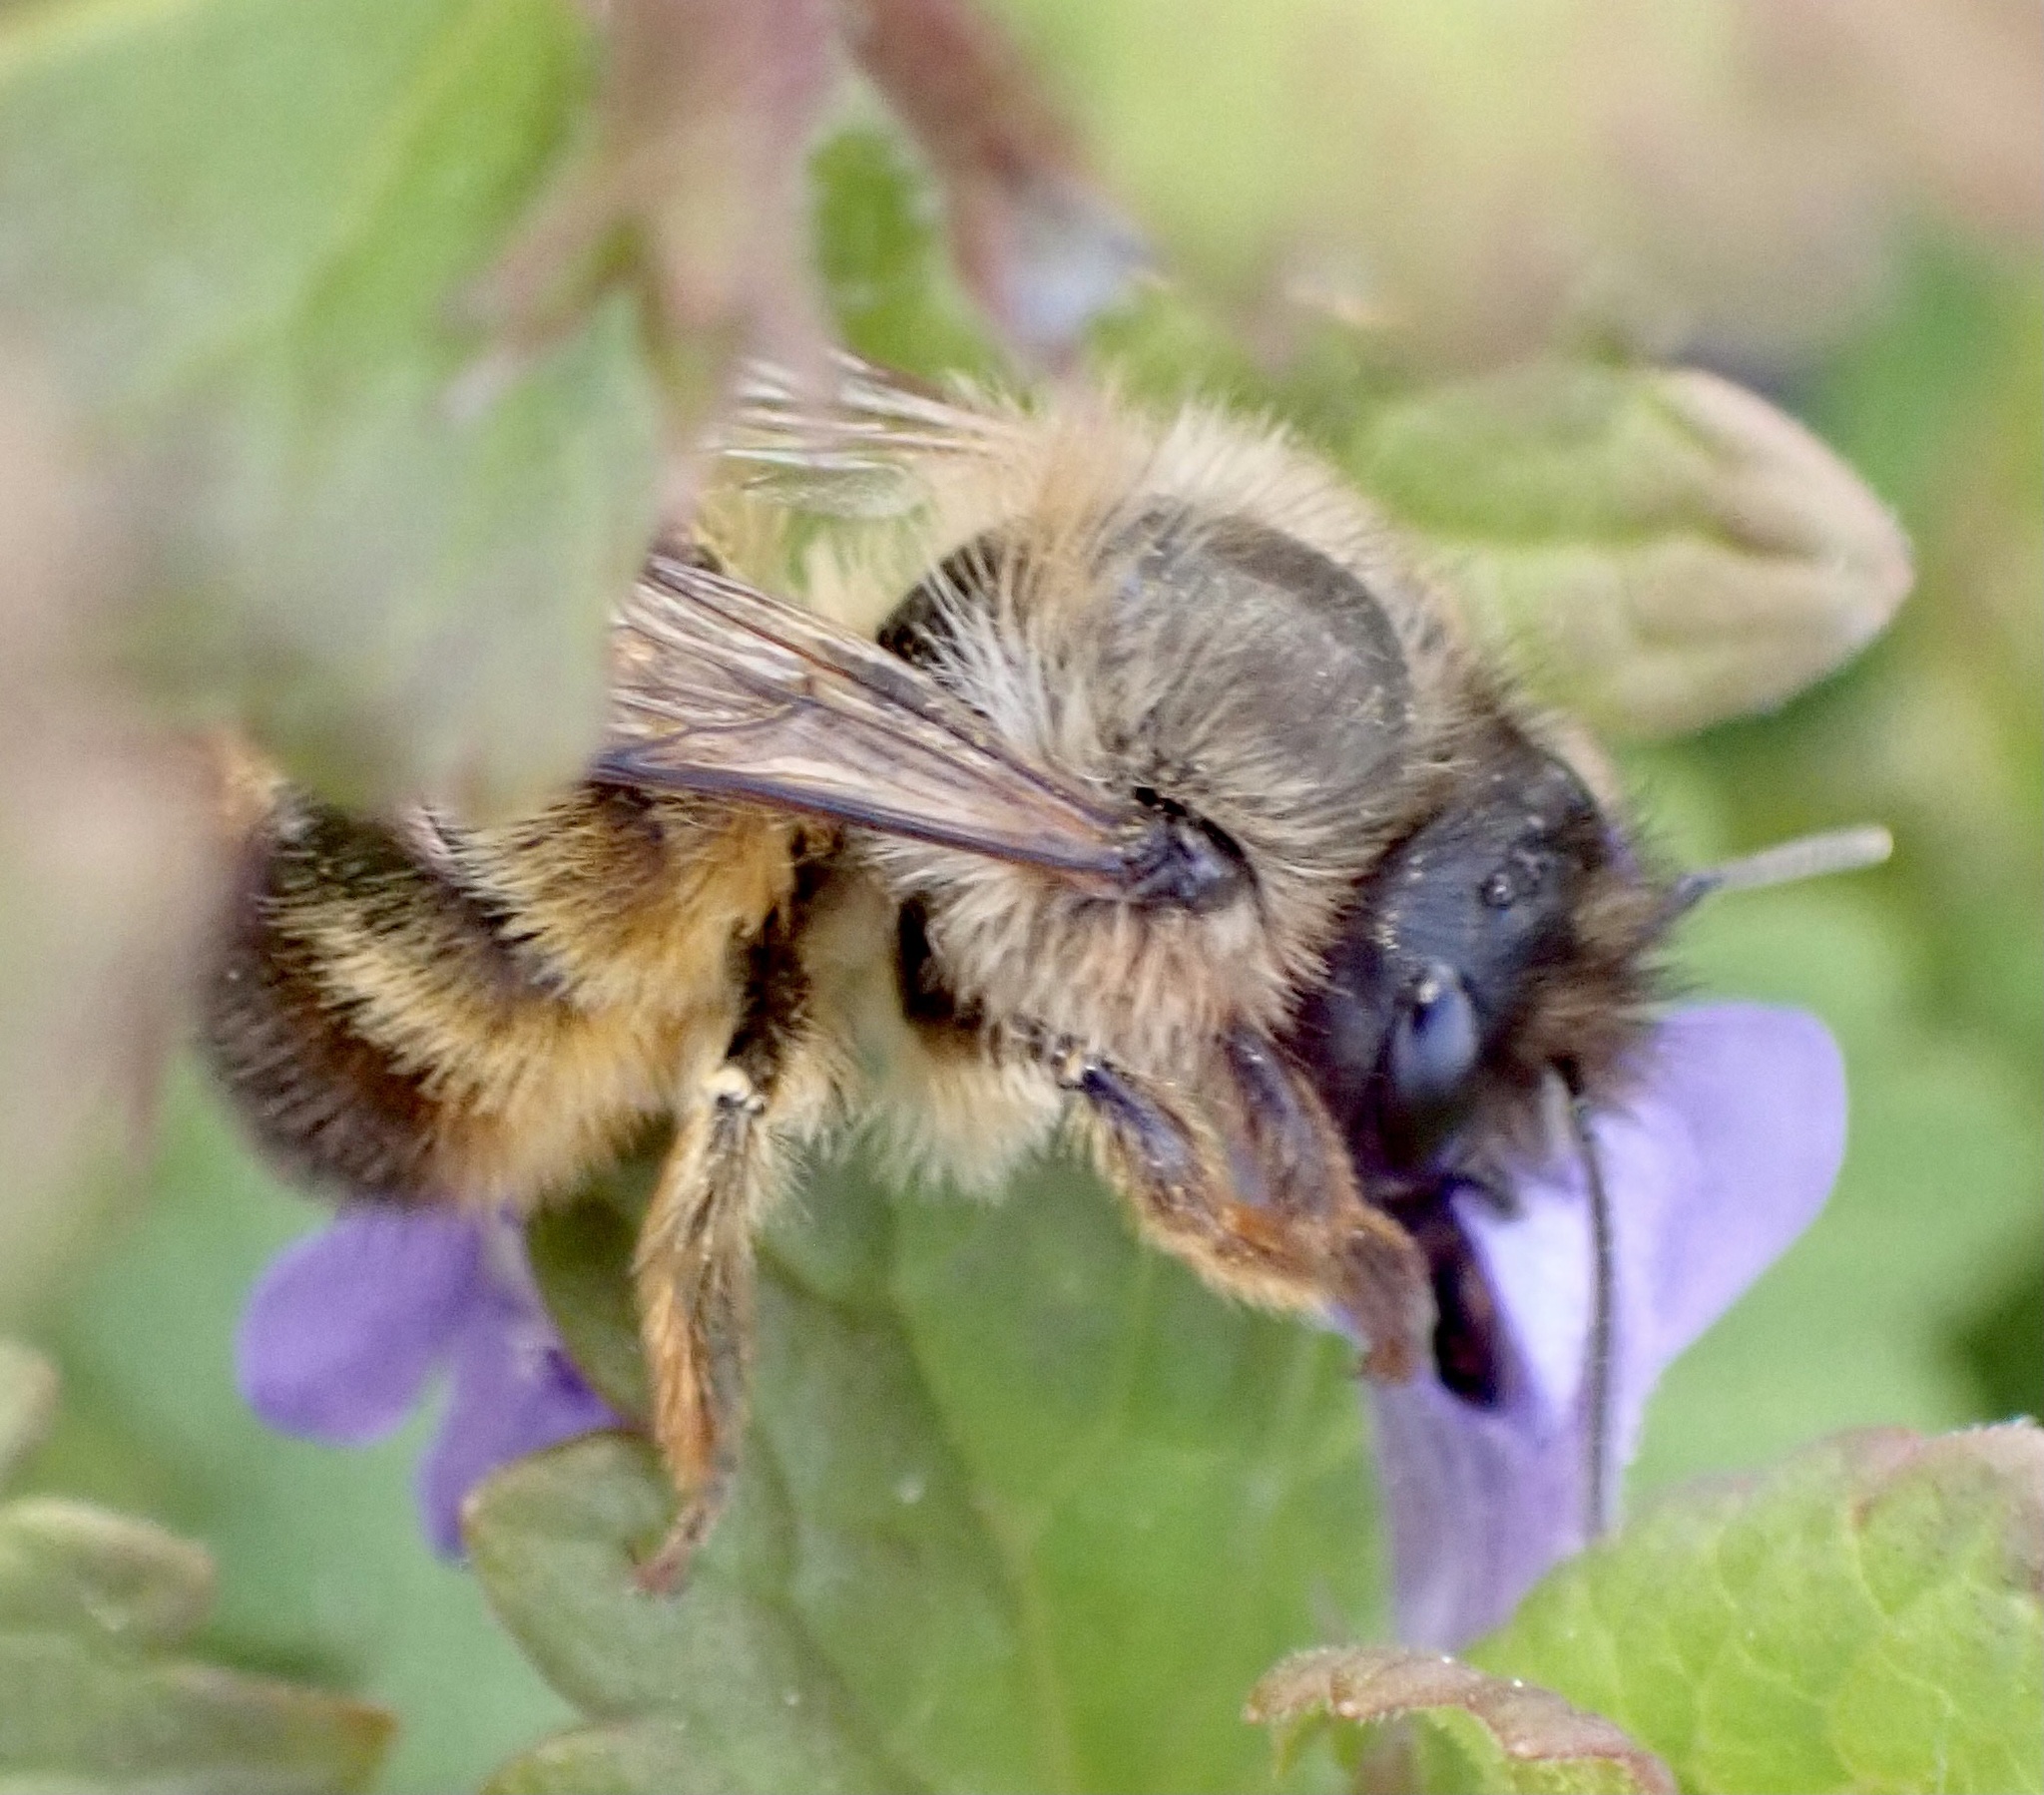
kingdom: Animalia
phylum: Arthropoda
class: Insecta
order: Hymenoptera
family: Megachilidae
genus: Osmia
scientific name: Osmia bicornis
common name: Red mason bee
